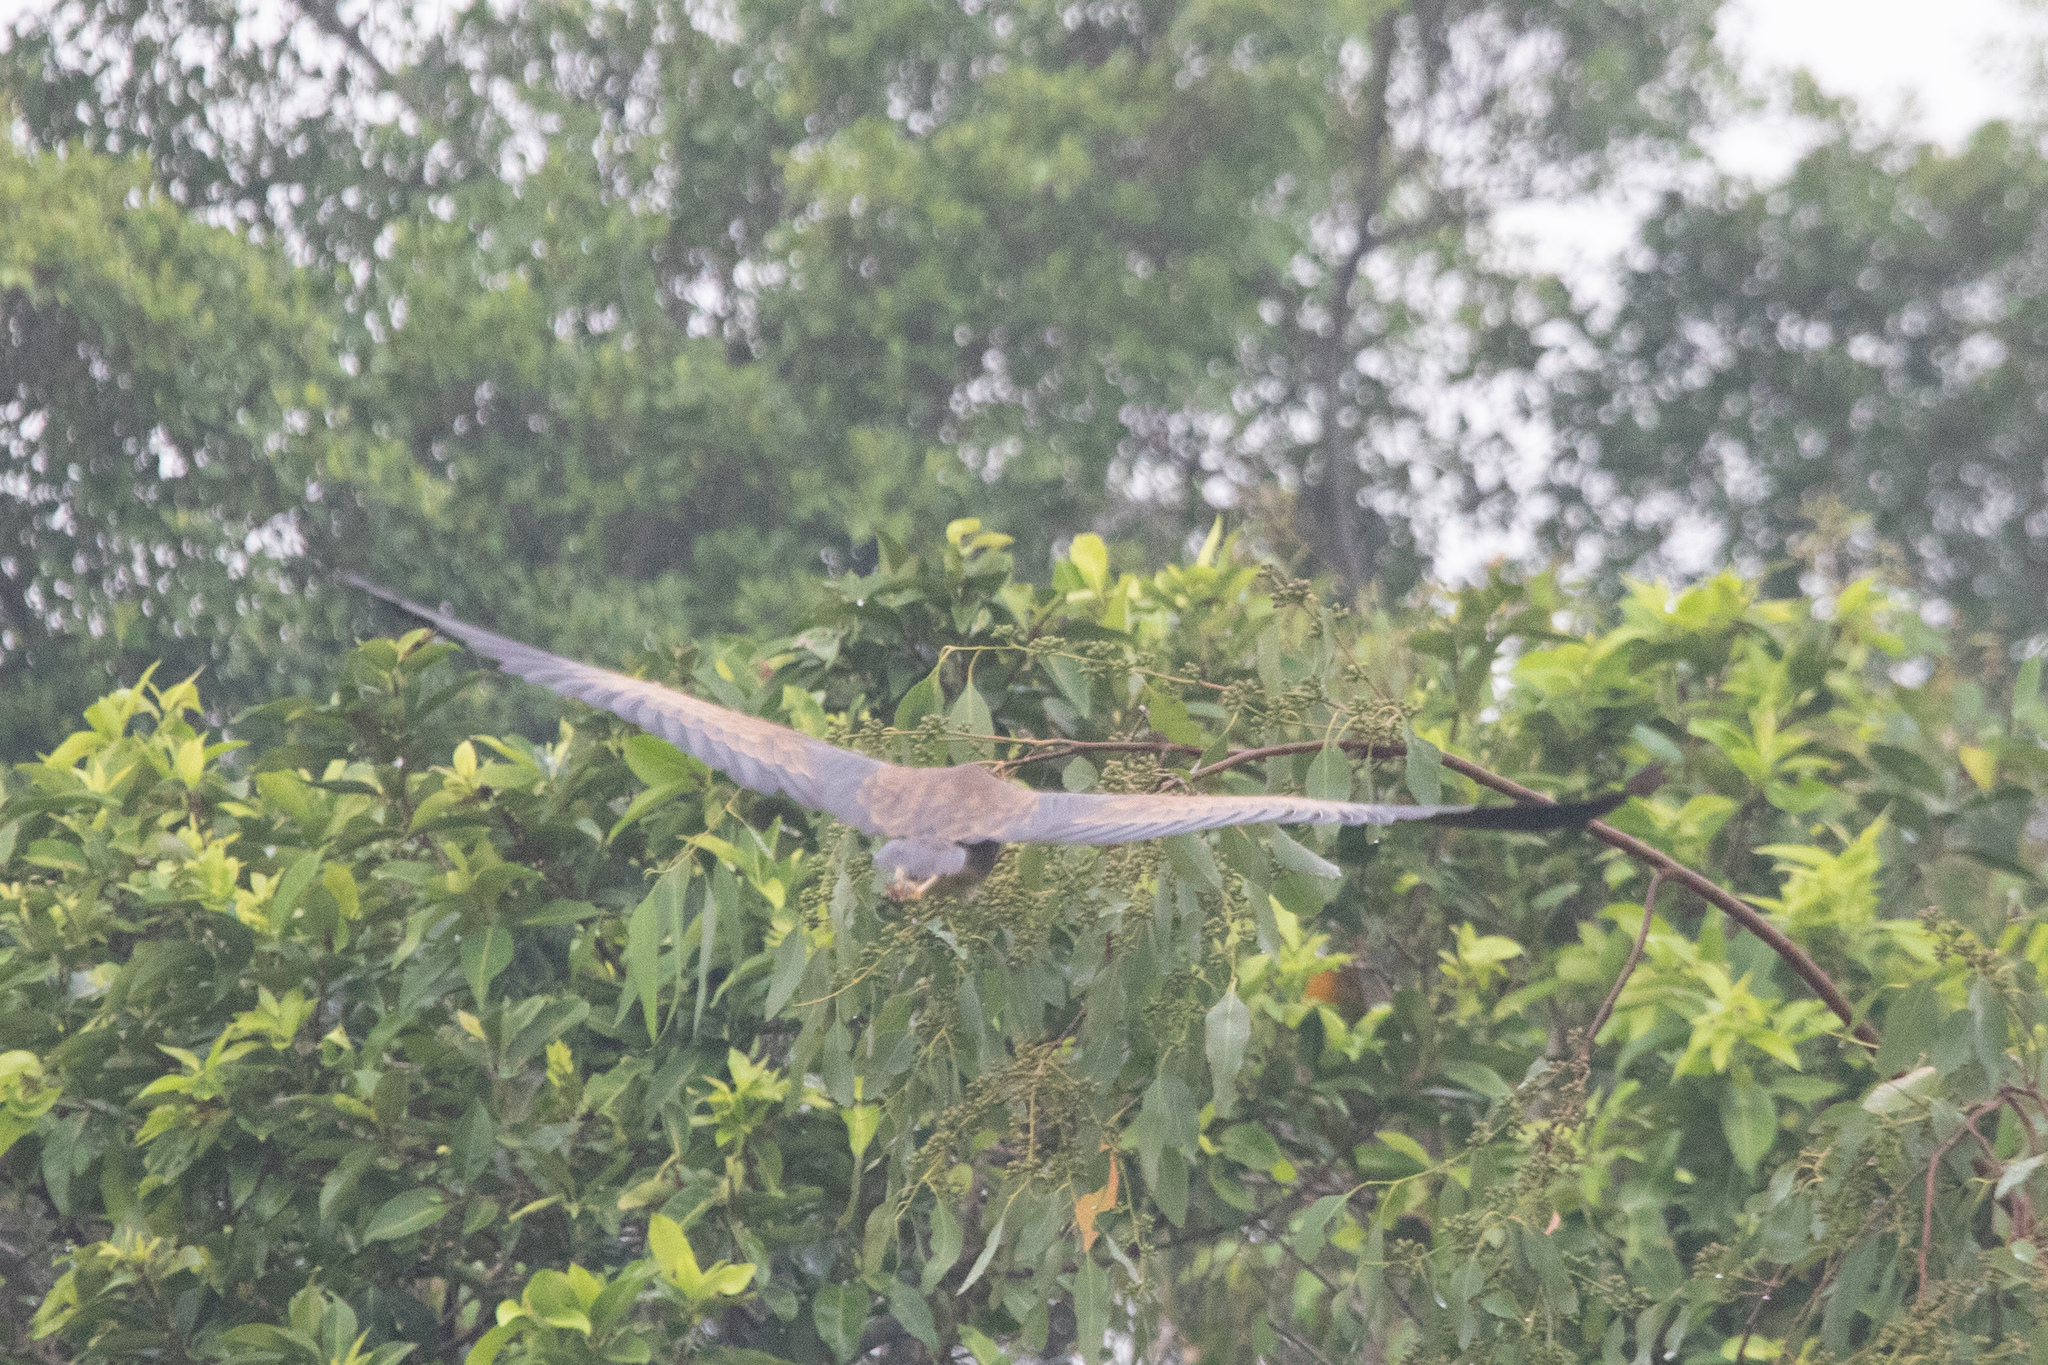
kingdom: Animalia
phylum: Chordata
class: Aves
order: Pelecaniformes
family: Ardeidae
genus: Ardea
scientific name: Ardea purpurea
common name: Purple heron
